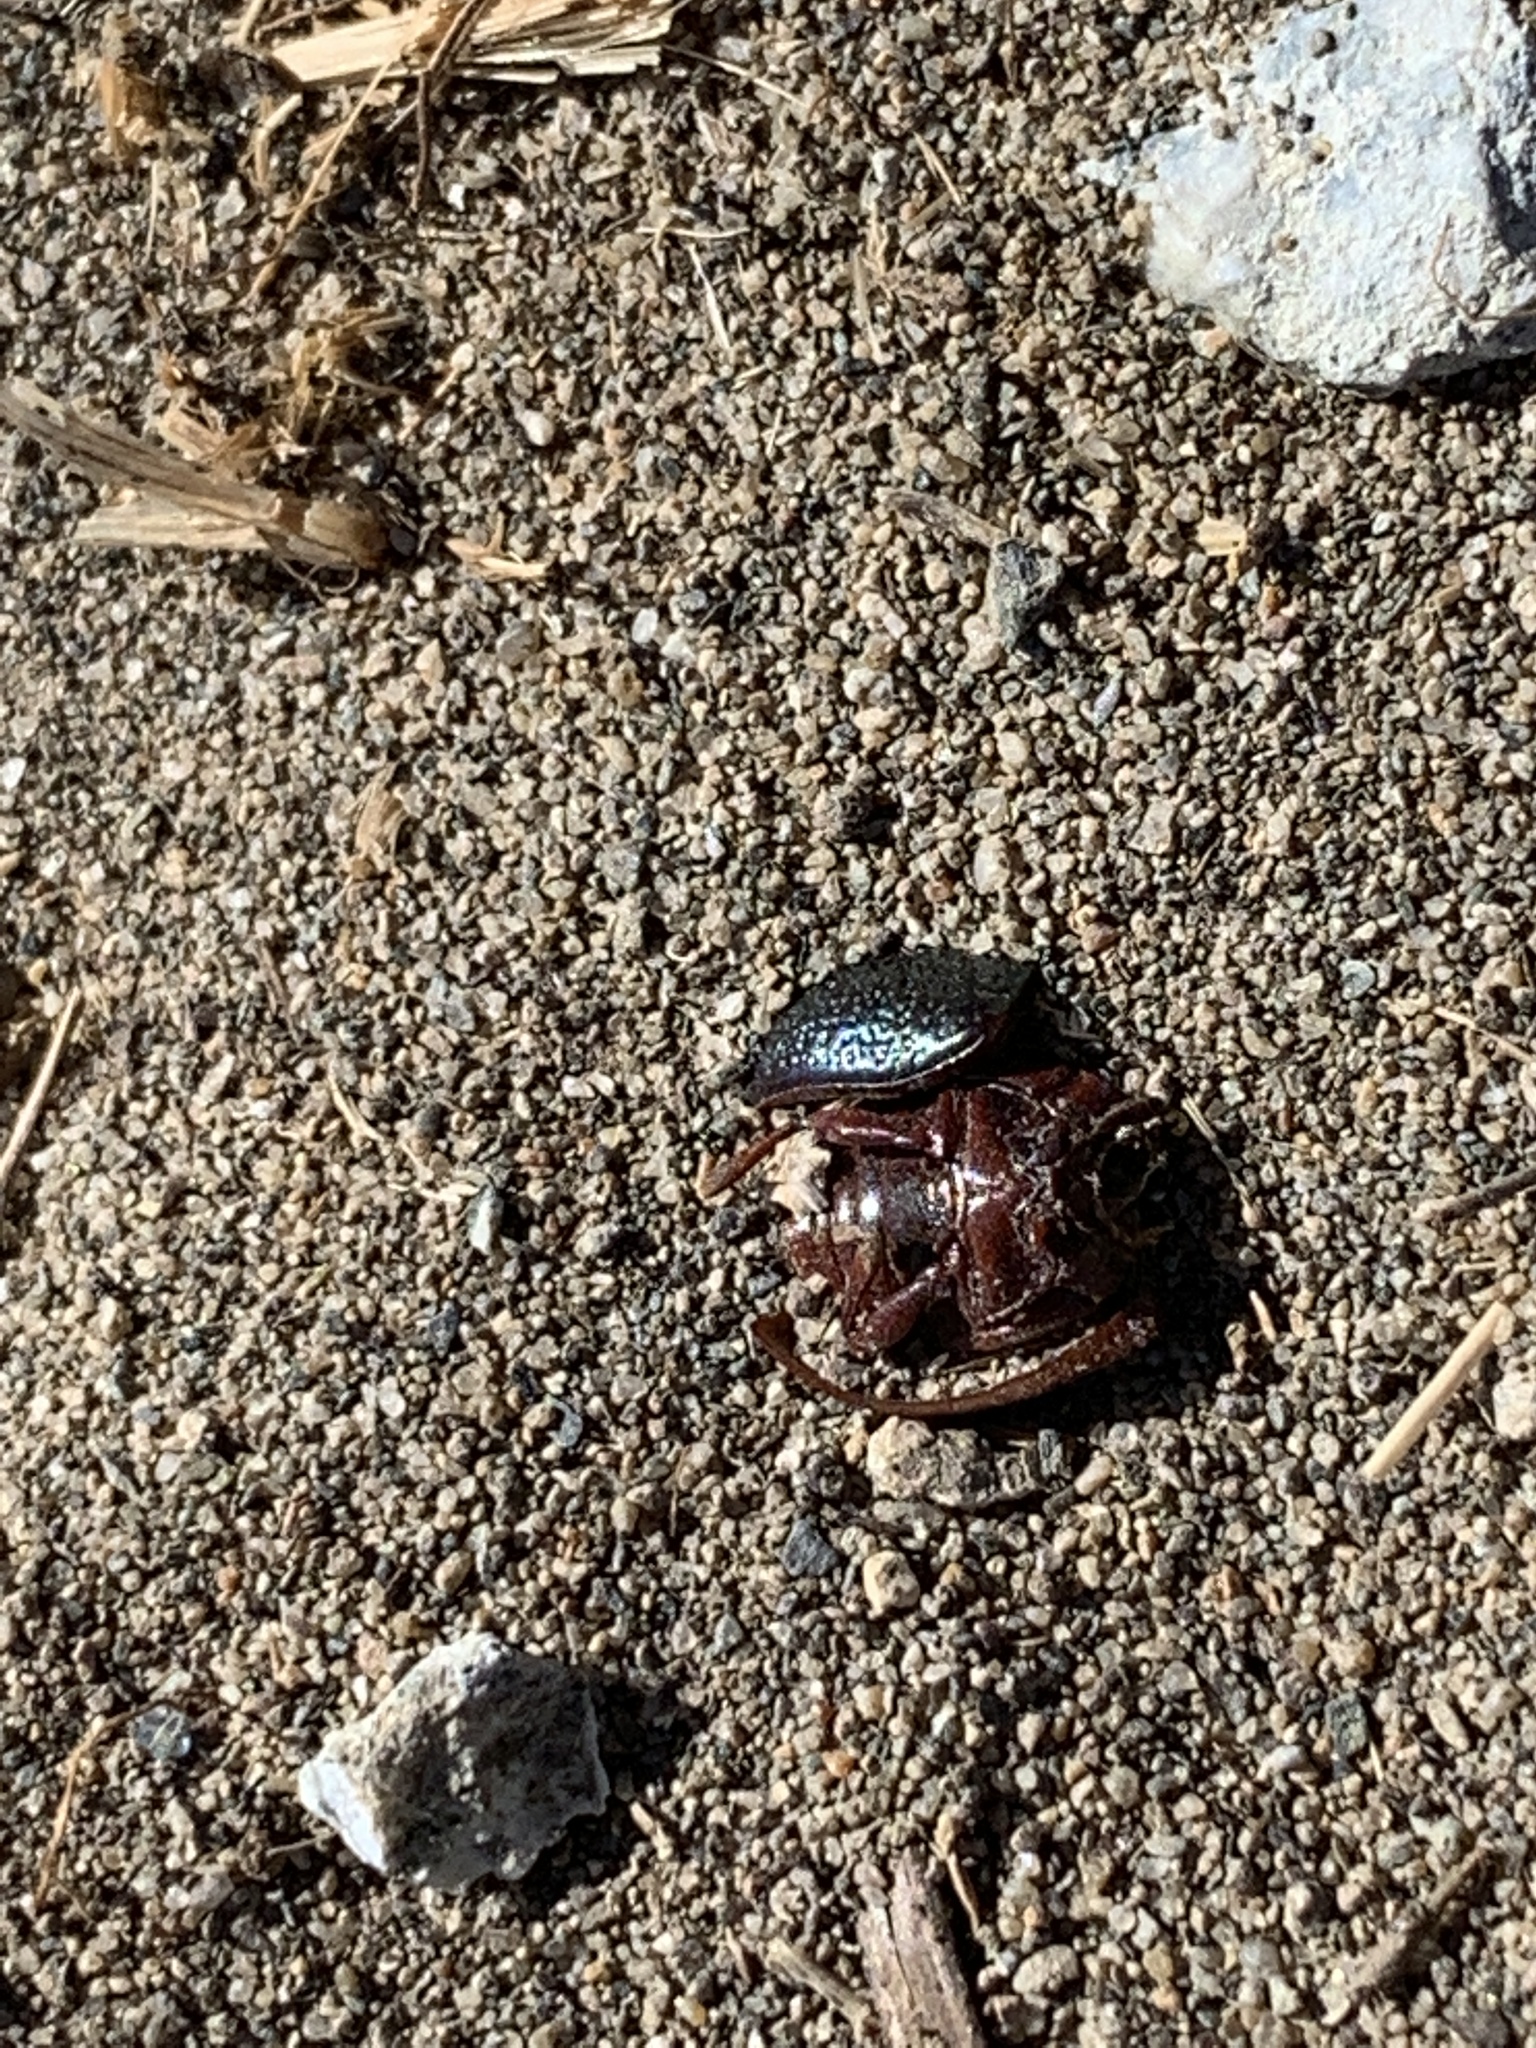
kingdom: Animalia
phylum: Arthropoda
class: Insecta
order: Coleoptera
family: Chrysomelidae
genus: Chrysolina
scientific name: Chrysolina bankii
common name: Leaf beetle
